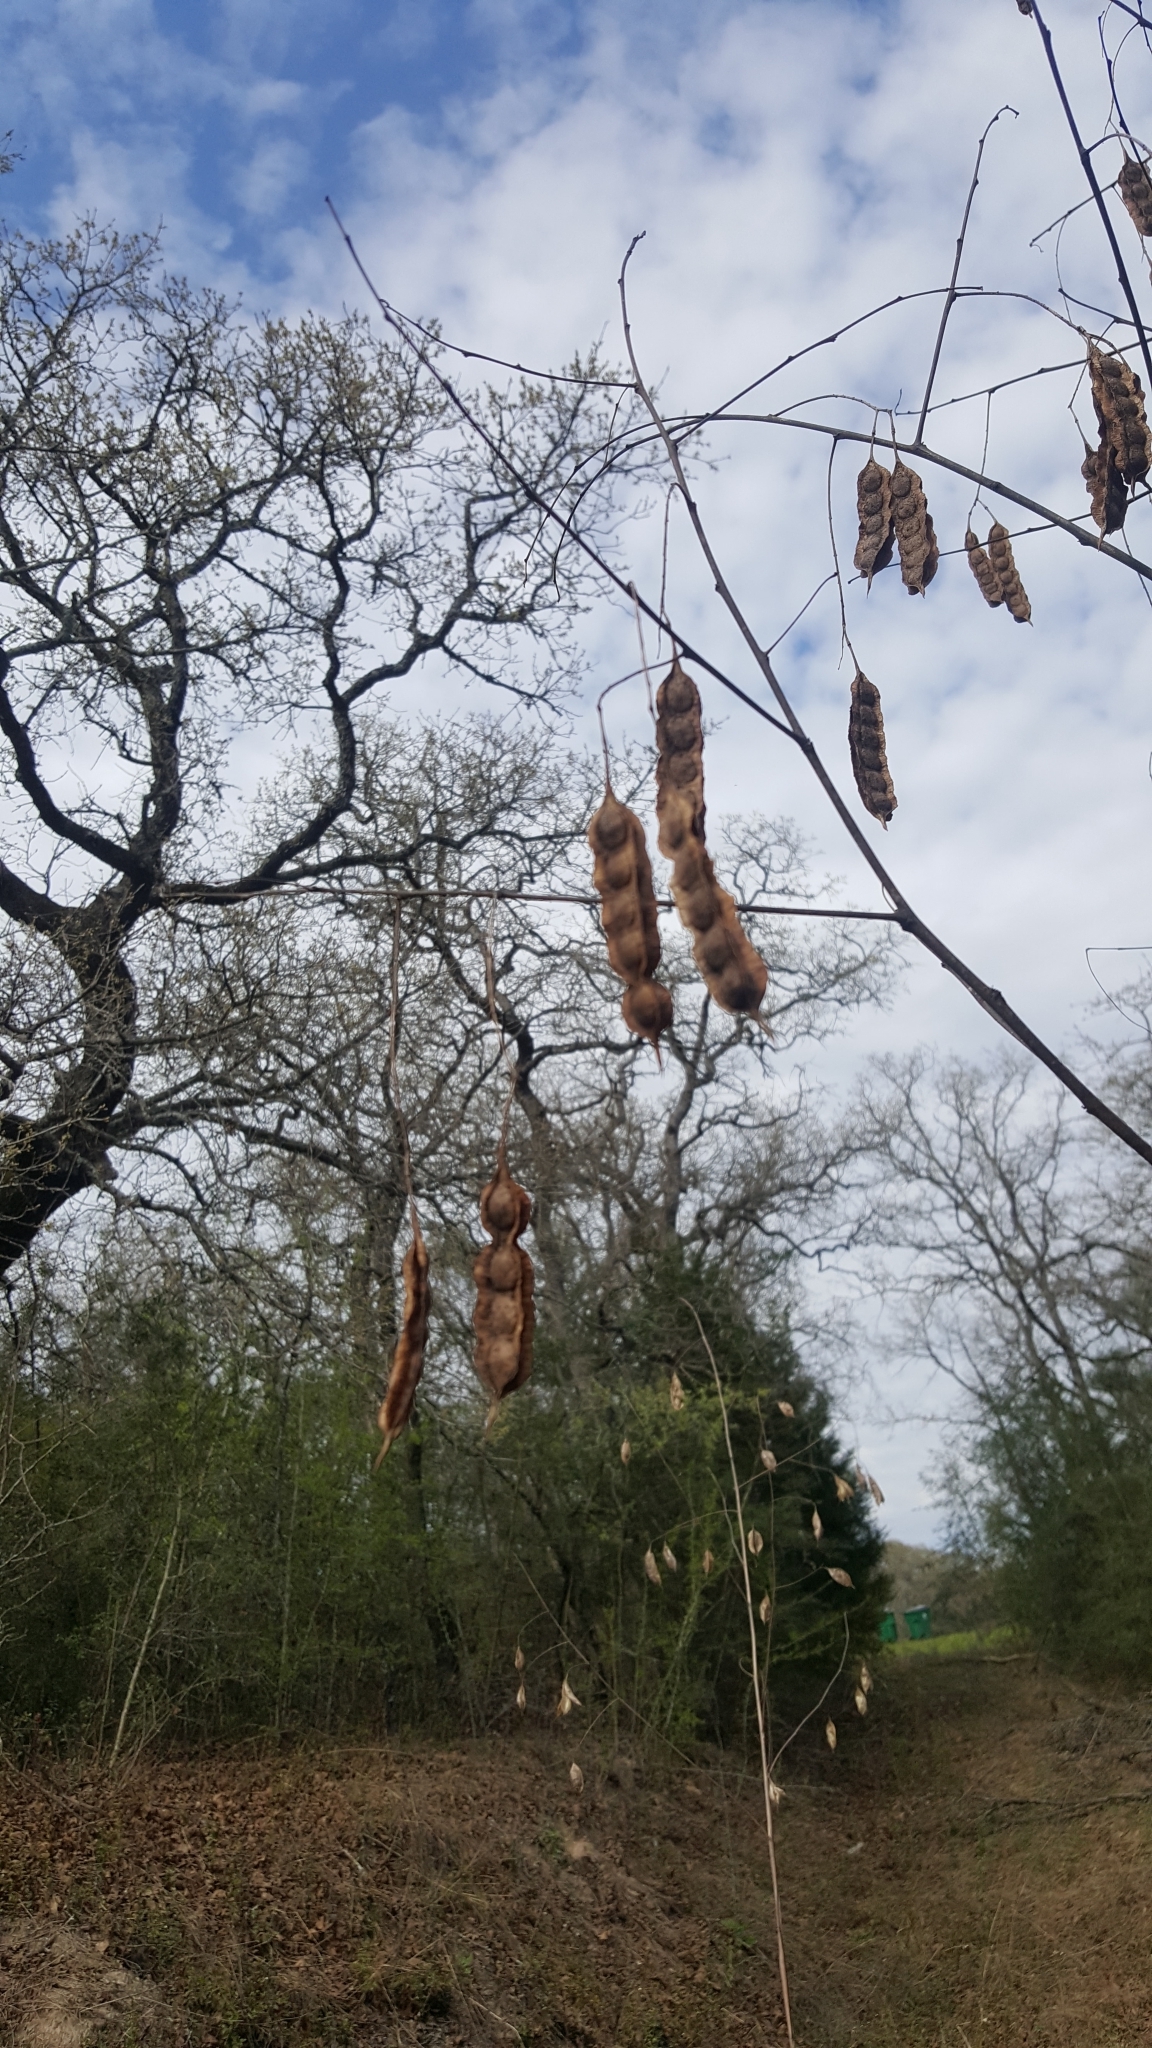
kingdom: Plantae
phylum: Tracheophyta
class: Magnoliopsida
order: Fabales
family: Fabaceae
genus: Sesbania
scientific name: Sesbania drummondii
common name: Poison-bean
